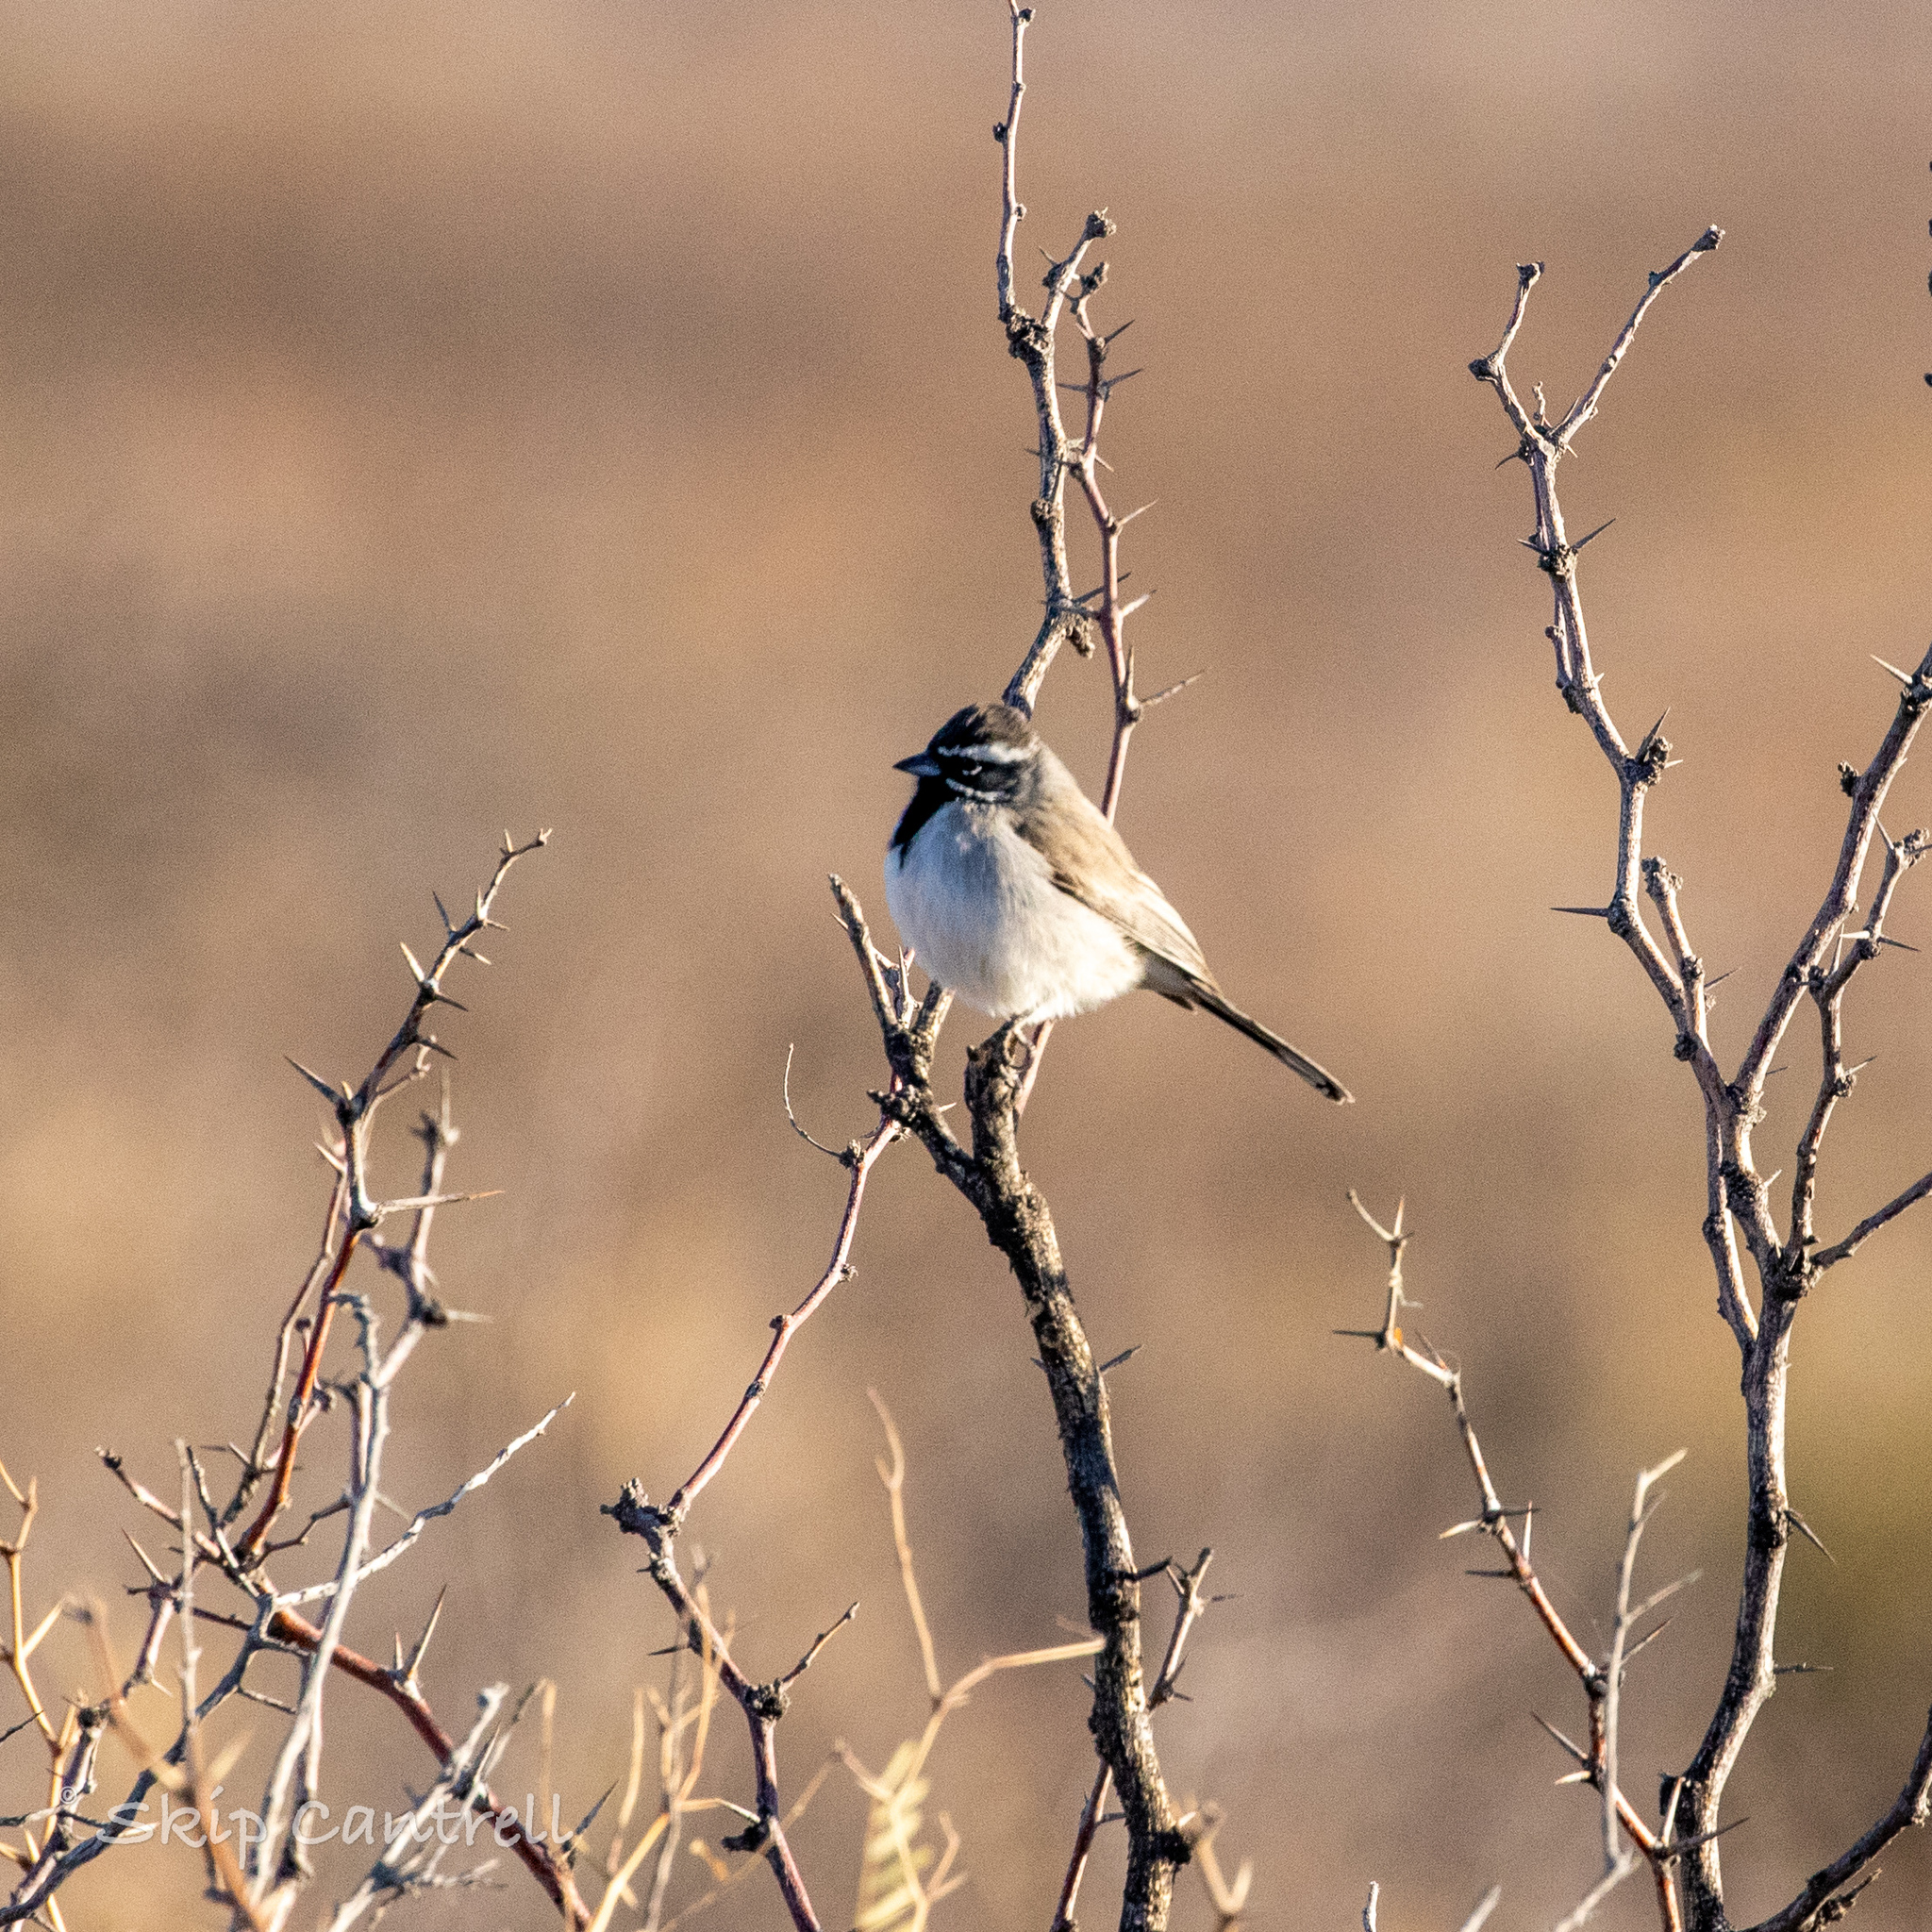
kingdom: Animalia
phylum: Chordata
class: Aves
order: Passeriformes
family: Passerellidae
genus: Amphispiza
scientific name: Amphispiza bilineata
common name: Black-throated sparrow
